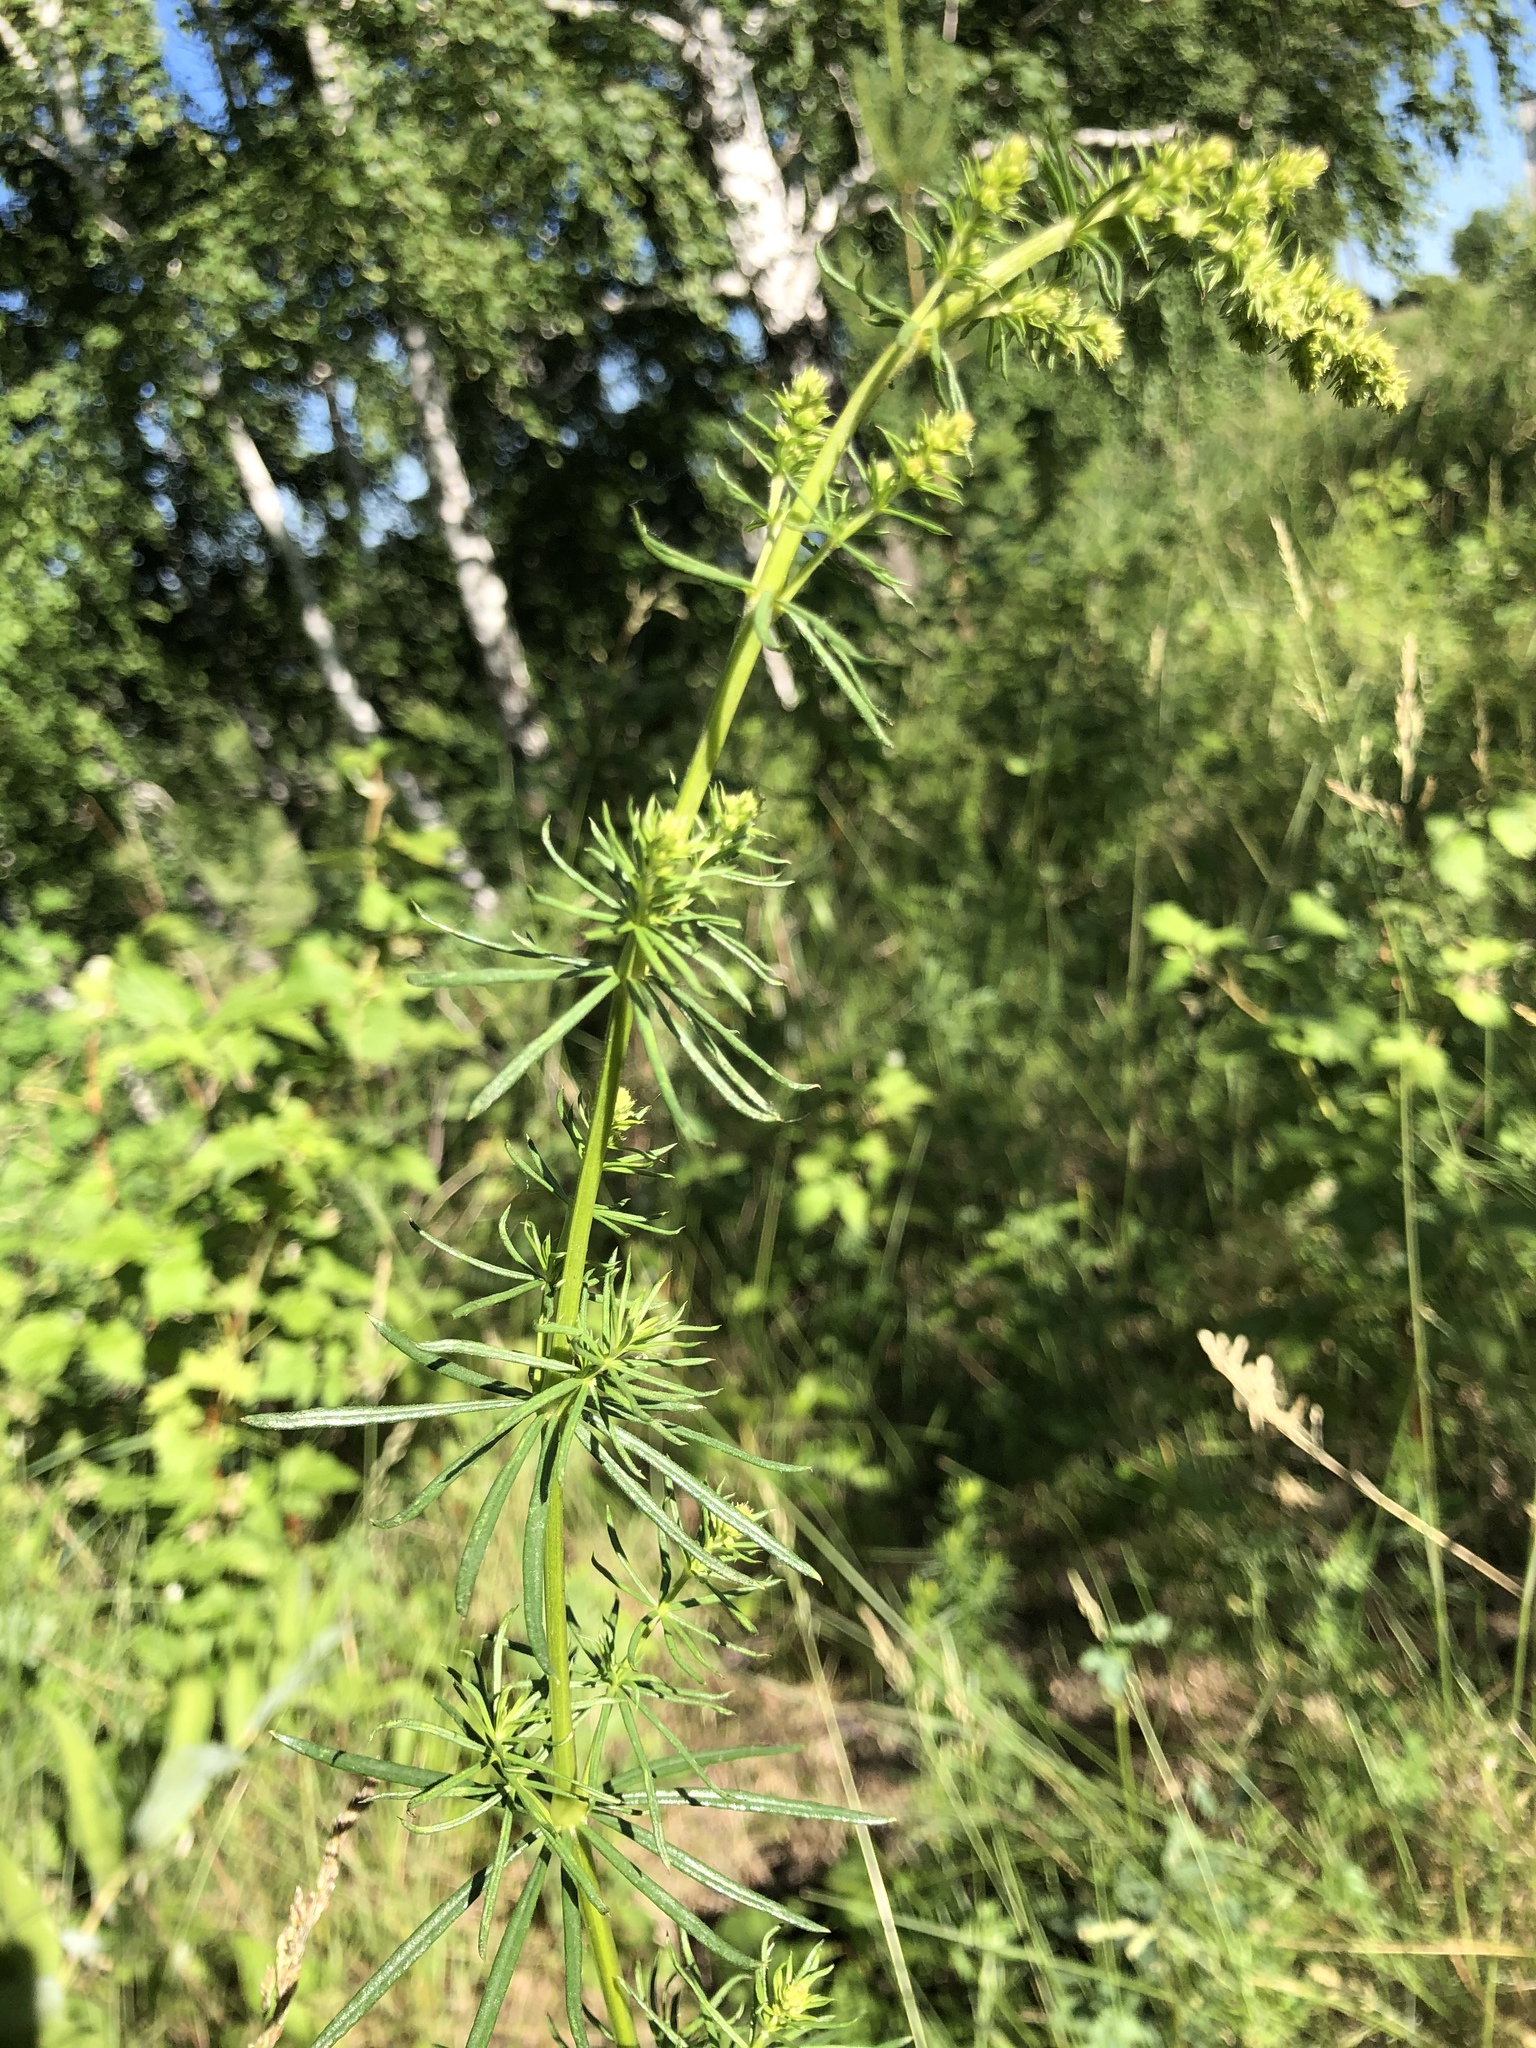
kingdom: Plantae
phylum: Tracheophyta
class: Magnoliopsida
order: Gentianales
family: Rubiaceae
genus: Galium
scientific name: Galium verum
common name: Lady's bedstraw
